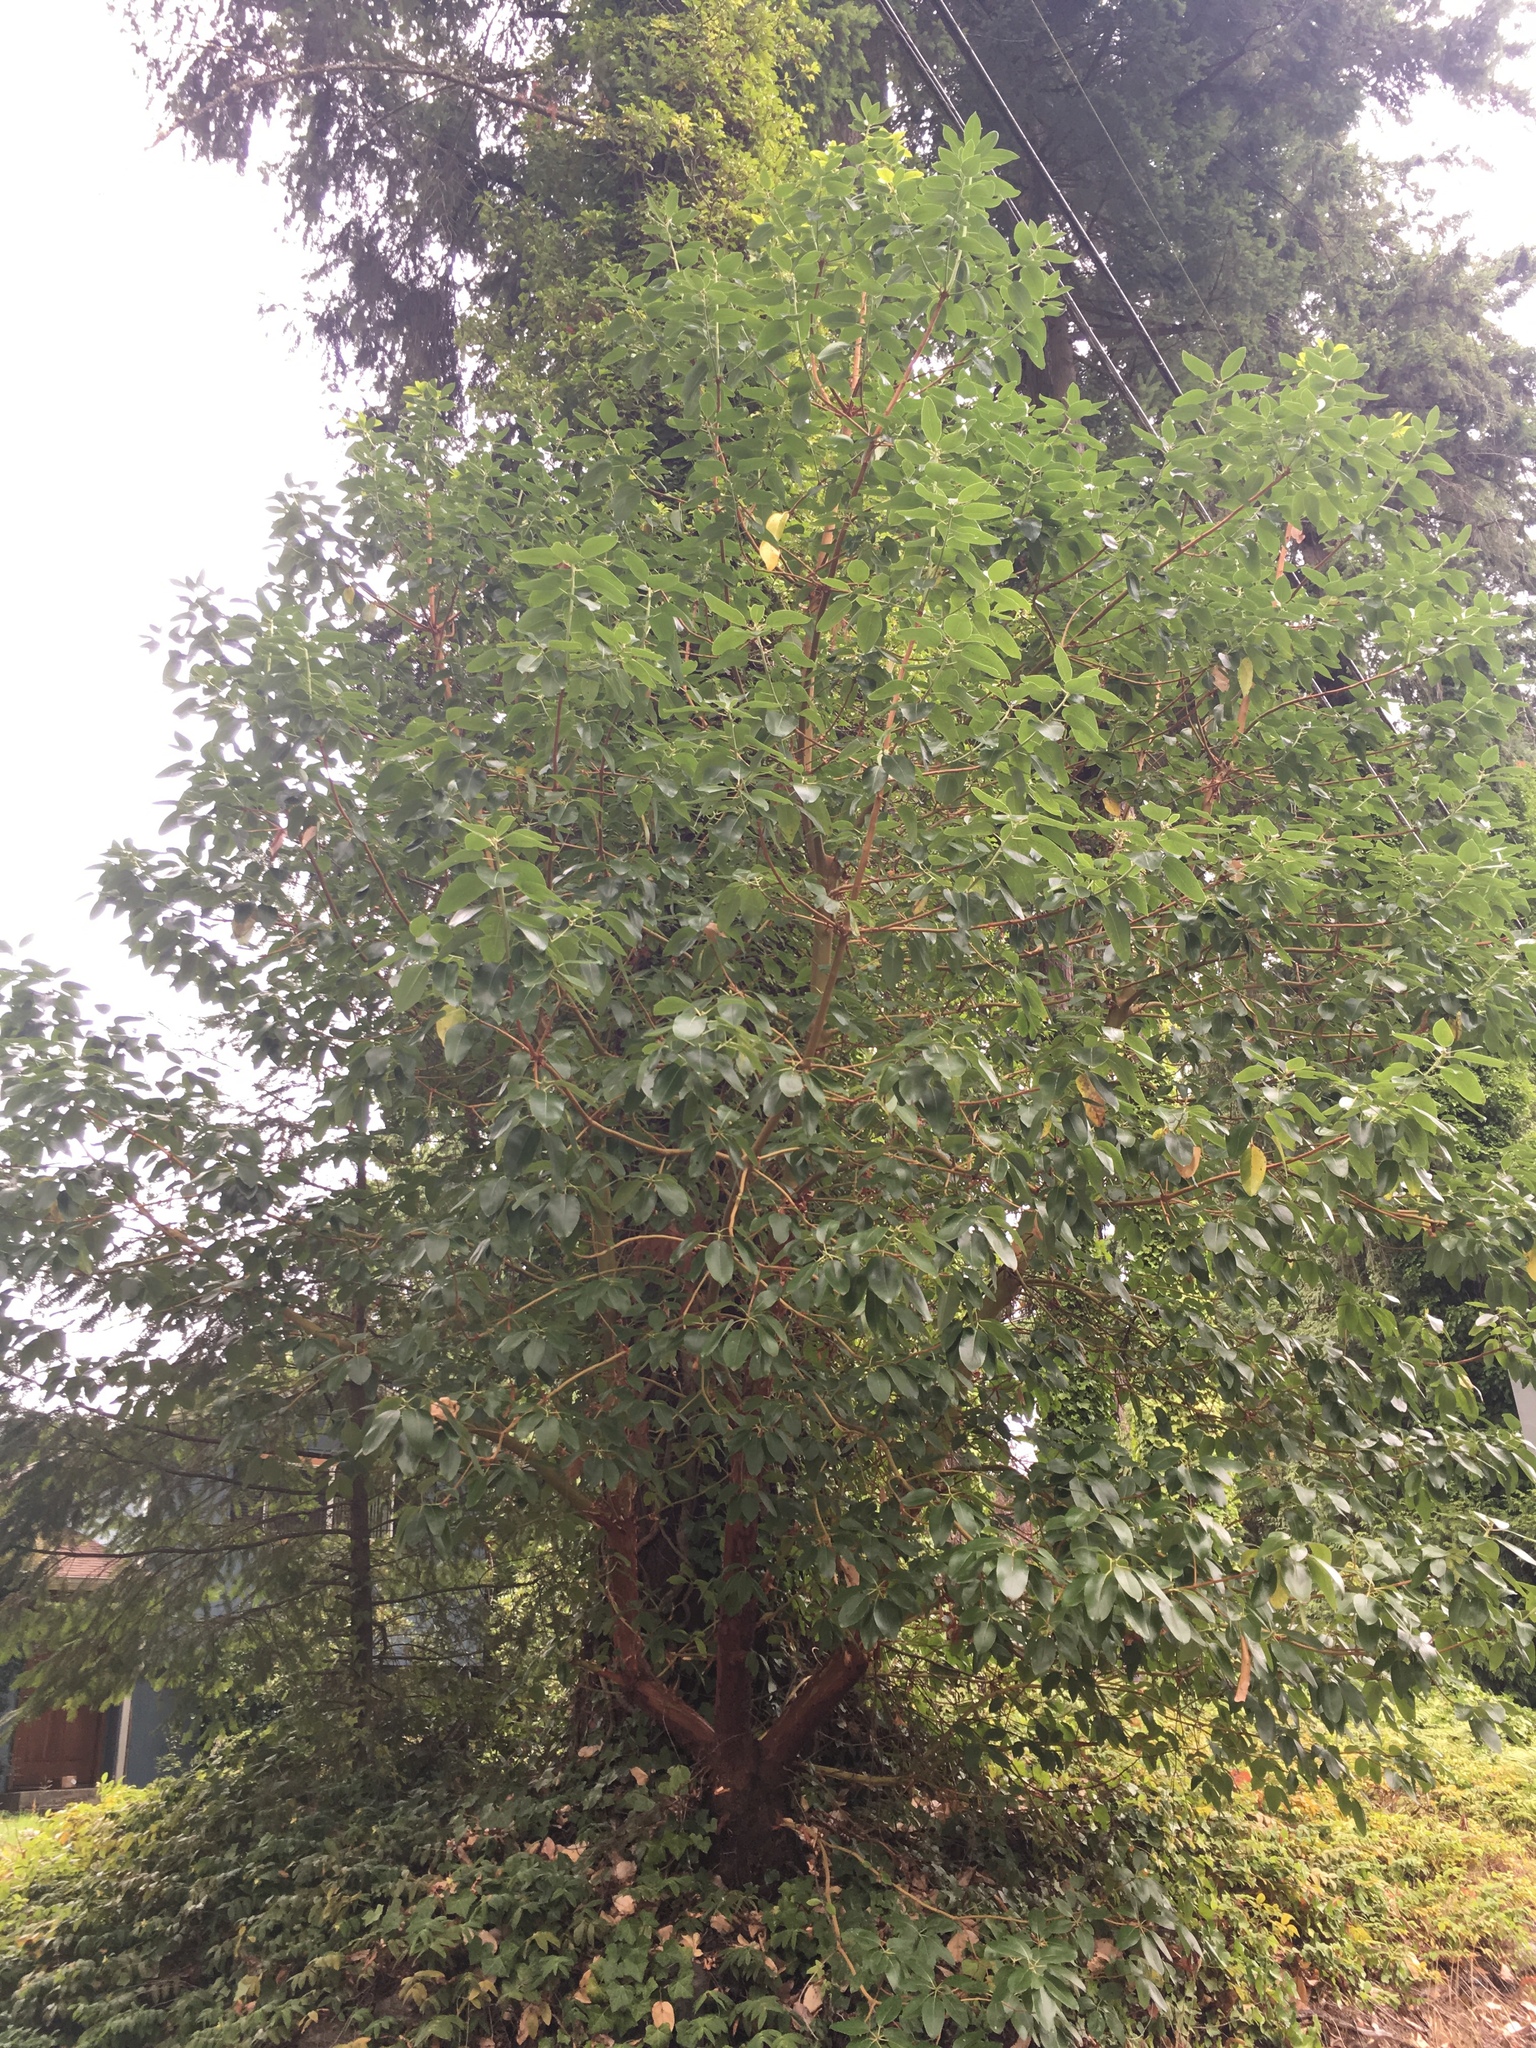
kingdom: Plantae
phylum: Tracheophyta
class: Magnoliopsida
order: Ericales
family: Ericaceae
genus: Arbutus
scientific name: Arbutus menziesii
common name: Pacific madrone
